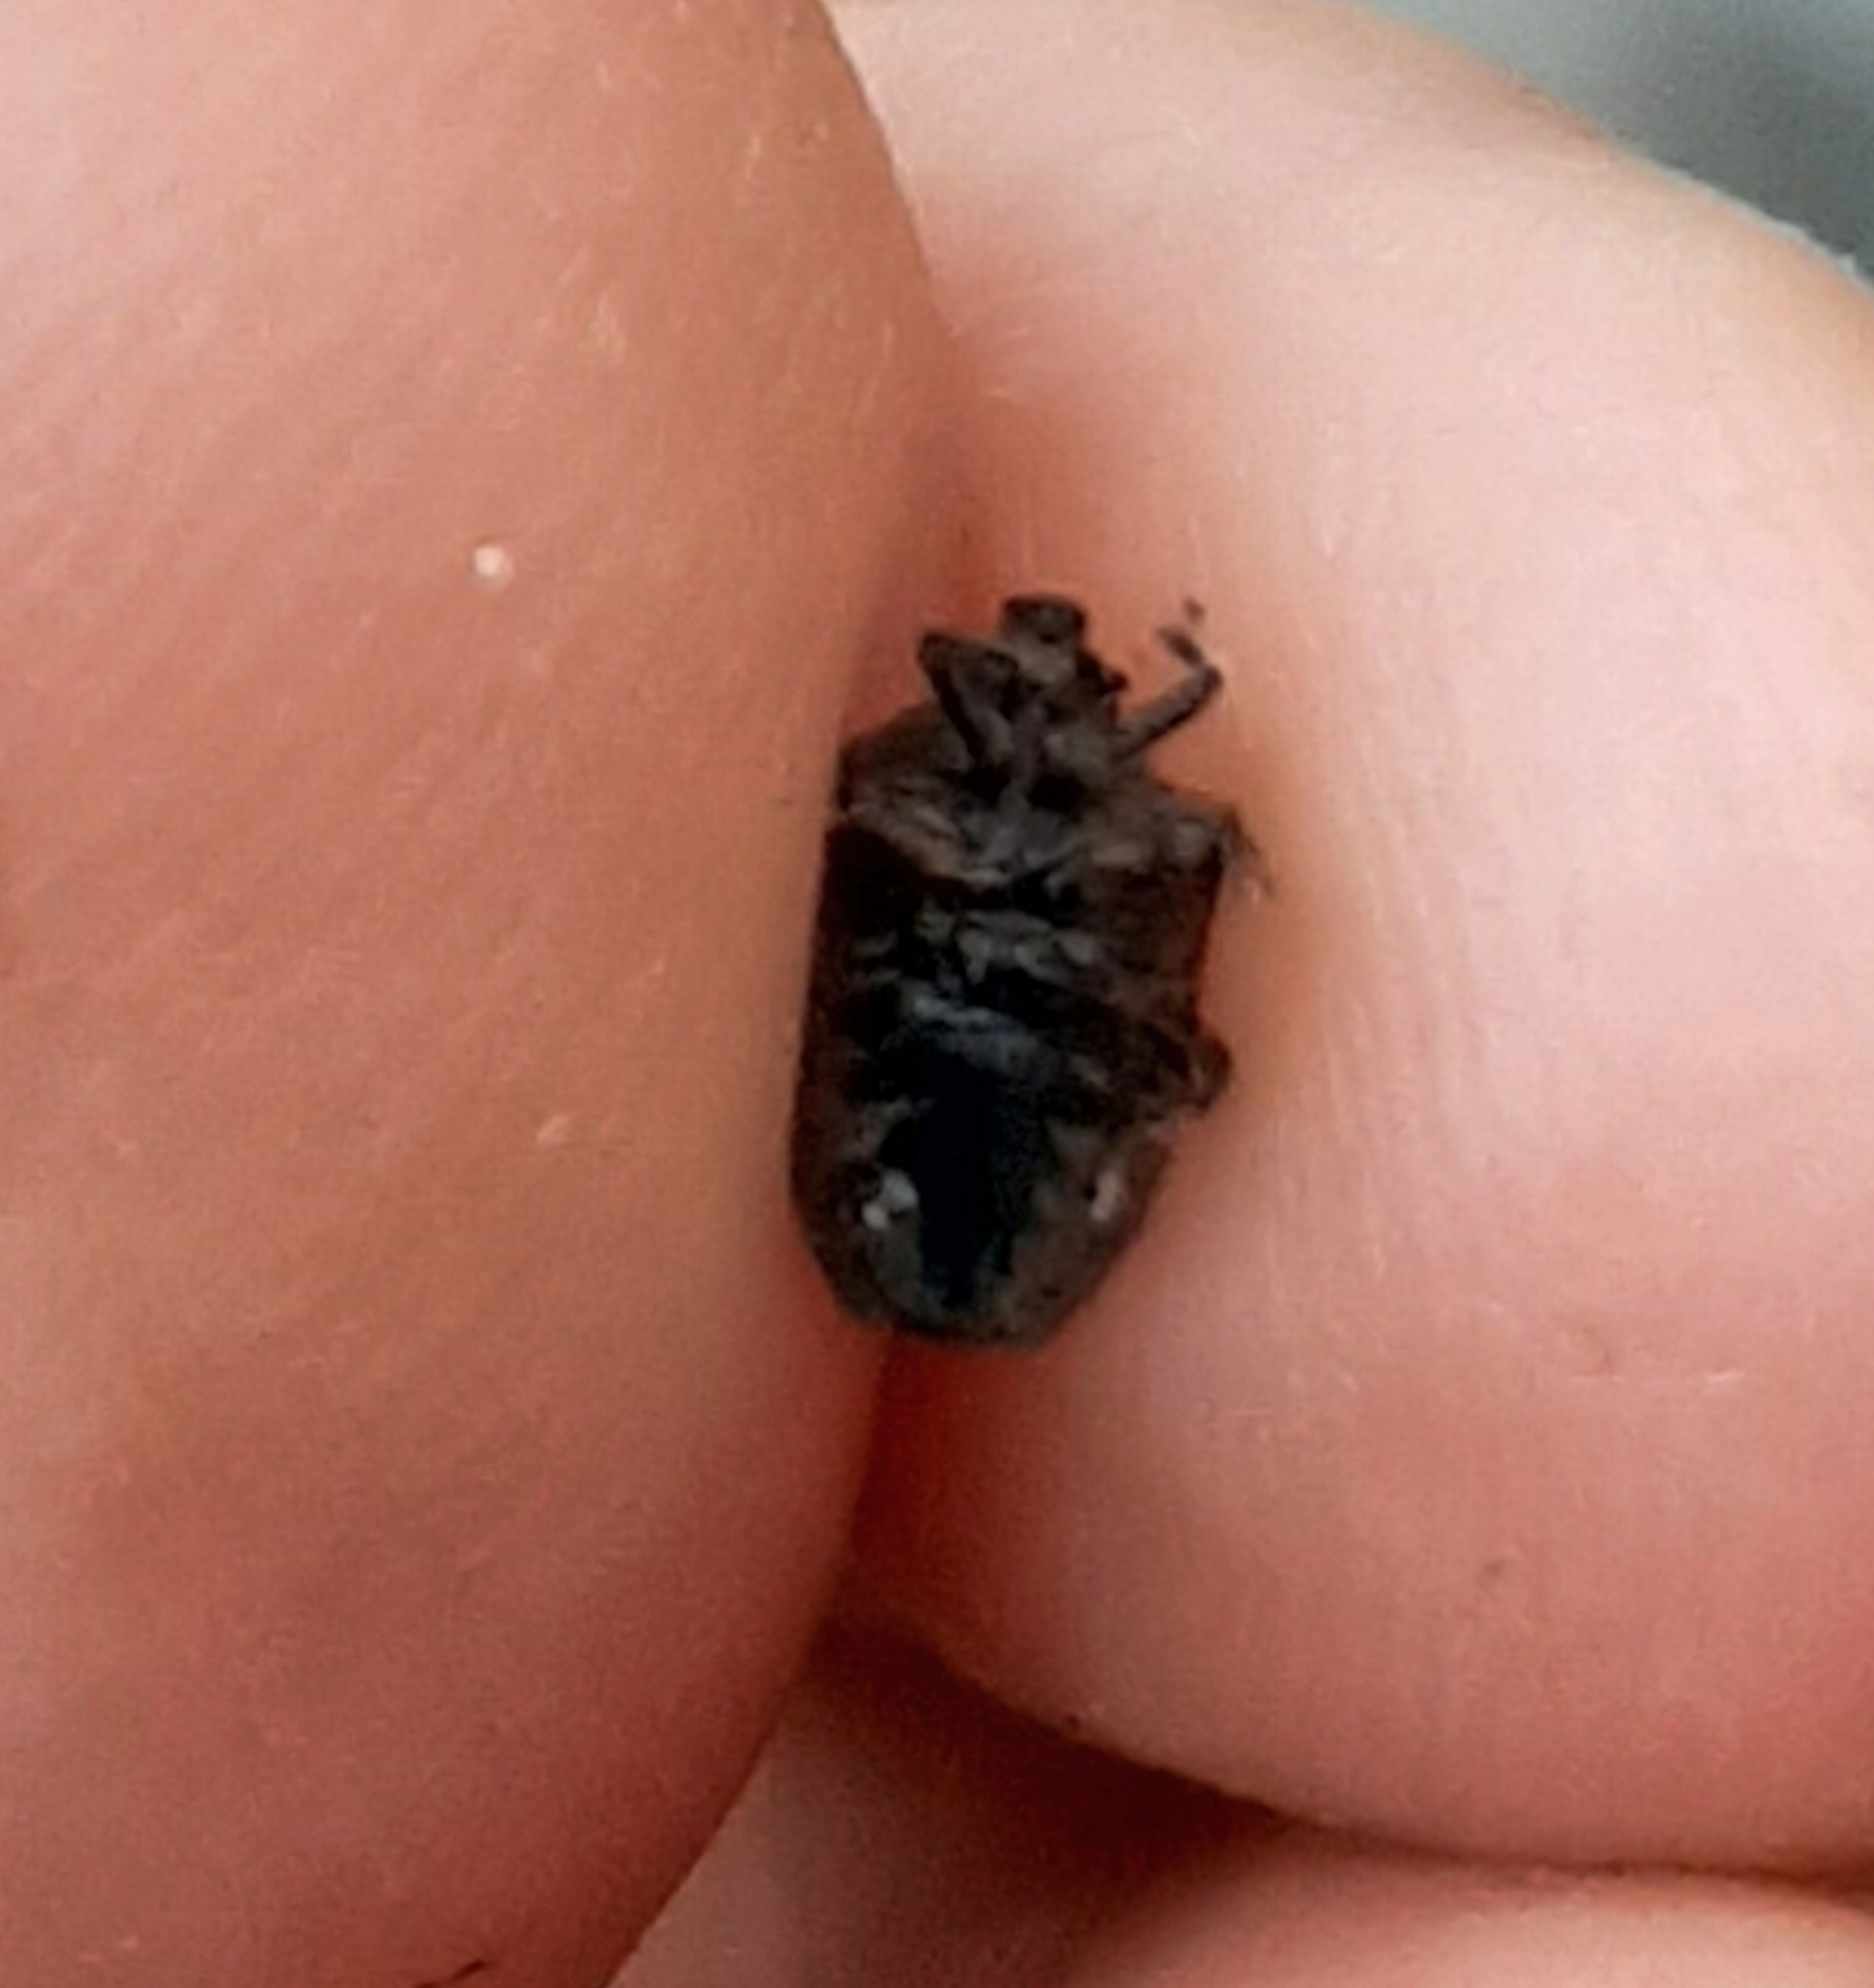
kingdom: Animalia
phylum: Arthropoda
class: Insecta
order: Hemiptera
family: Pentatomidae
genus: Amaurochrous
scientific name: Amaurochrous cinctipes
